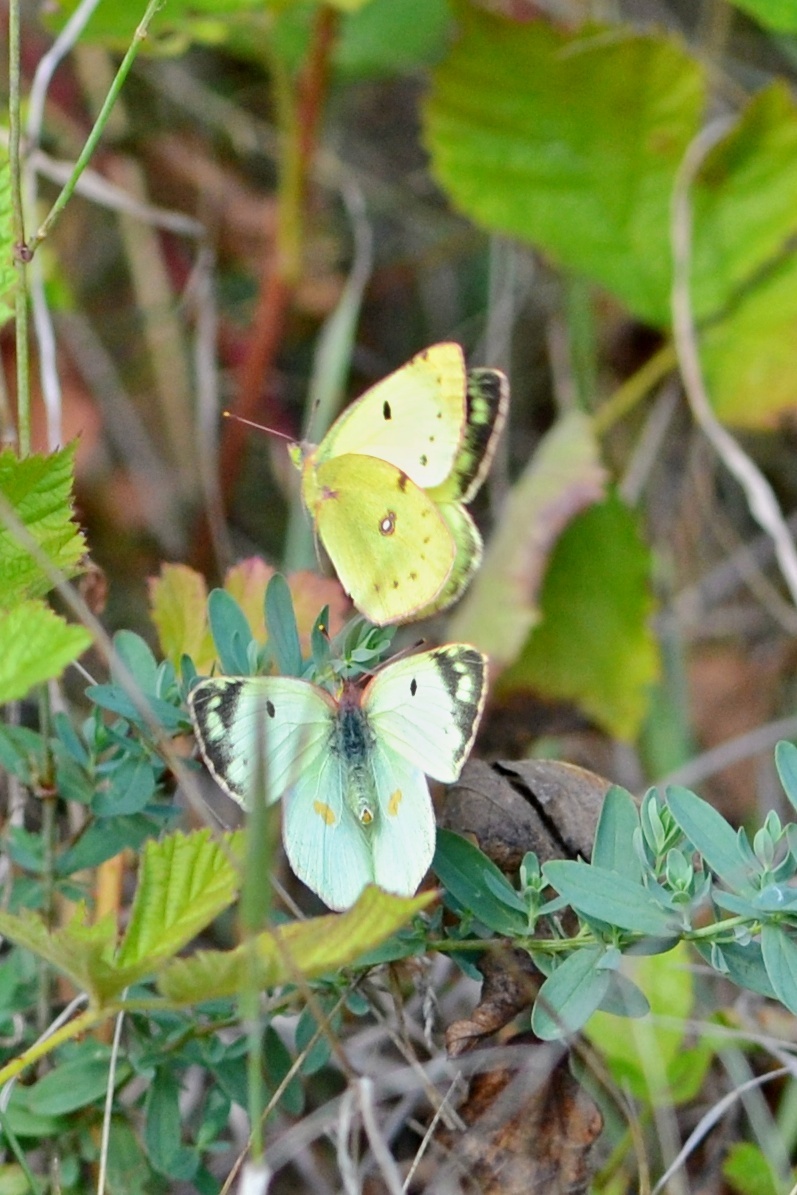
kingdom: Animalia
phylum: Arthropoda
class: Insecta
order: Lepidoptera
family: Pieridae
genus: Colias
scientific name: Colias alfacariensis
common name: Berger's clouded yellow
